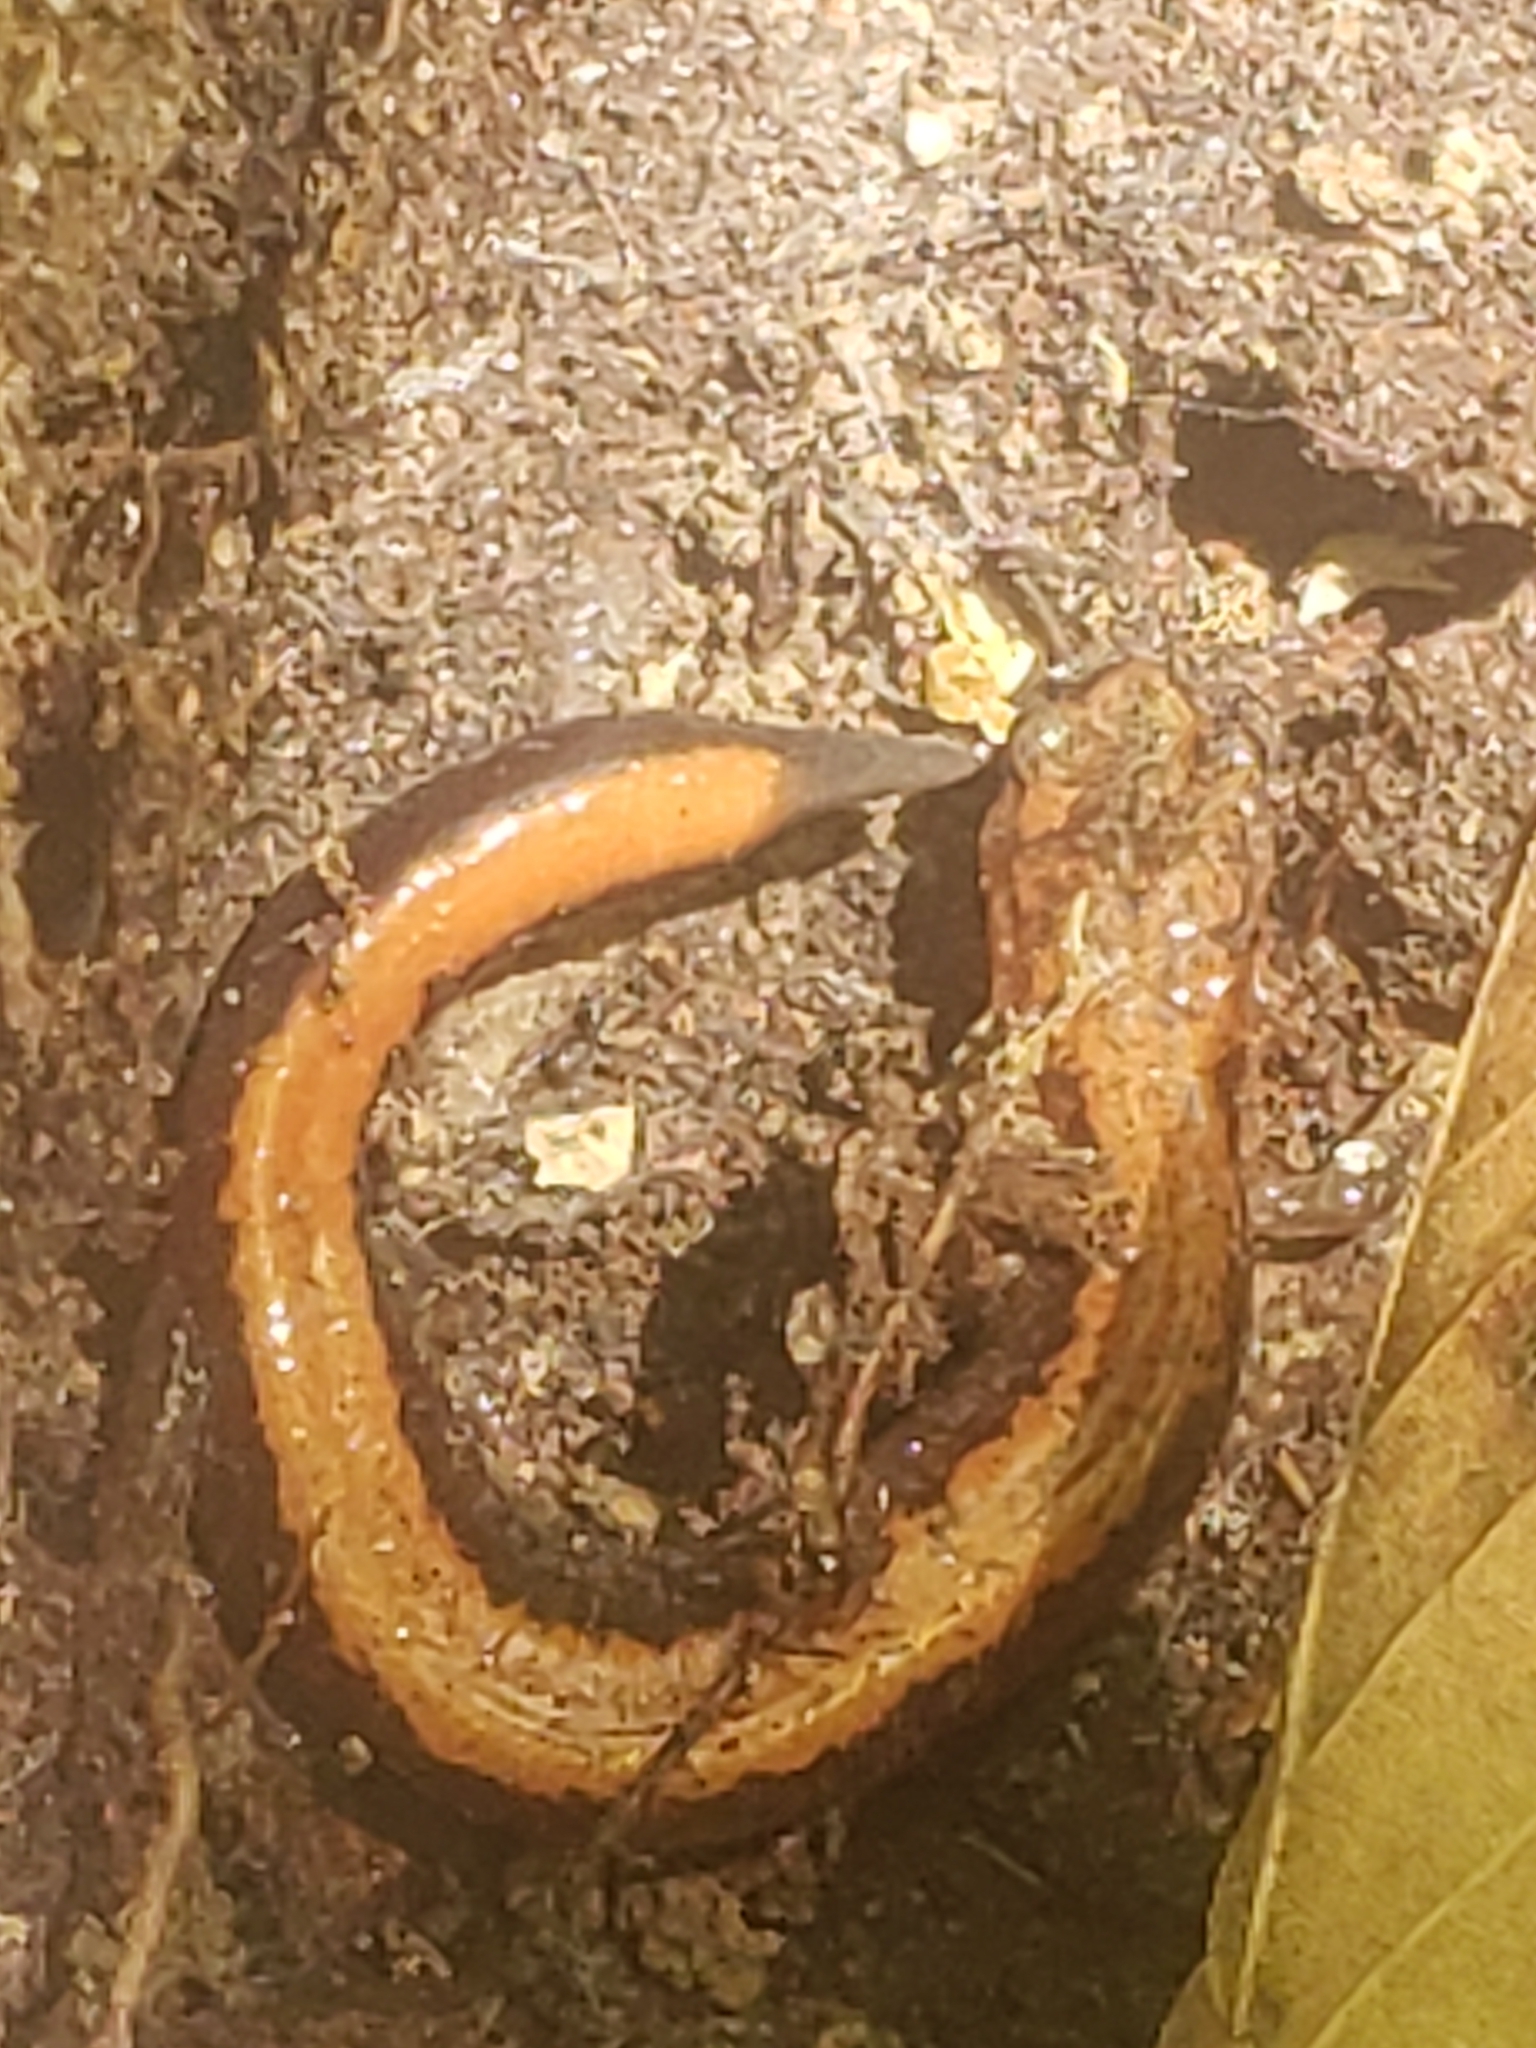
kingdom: Animalia
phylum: Chordata
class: Amphibia
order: Caudata
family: Plethodontidae
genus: Plethodon
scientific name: Plethodon cinereus
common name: Redback salamander
